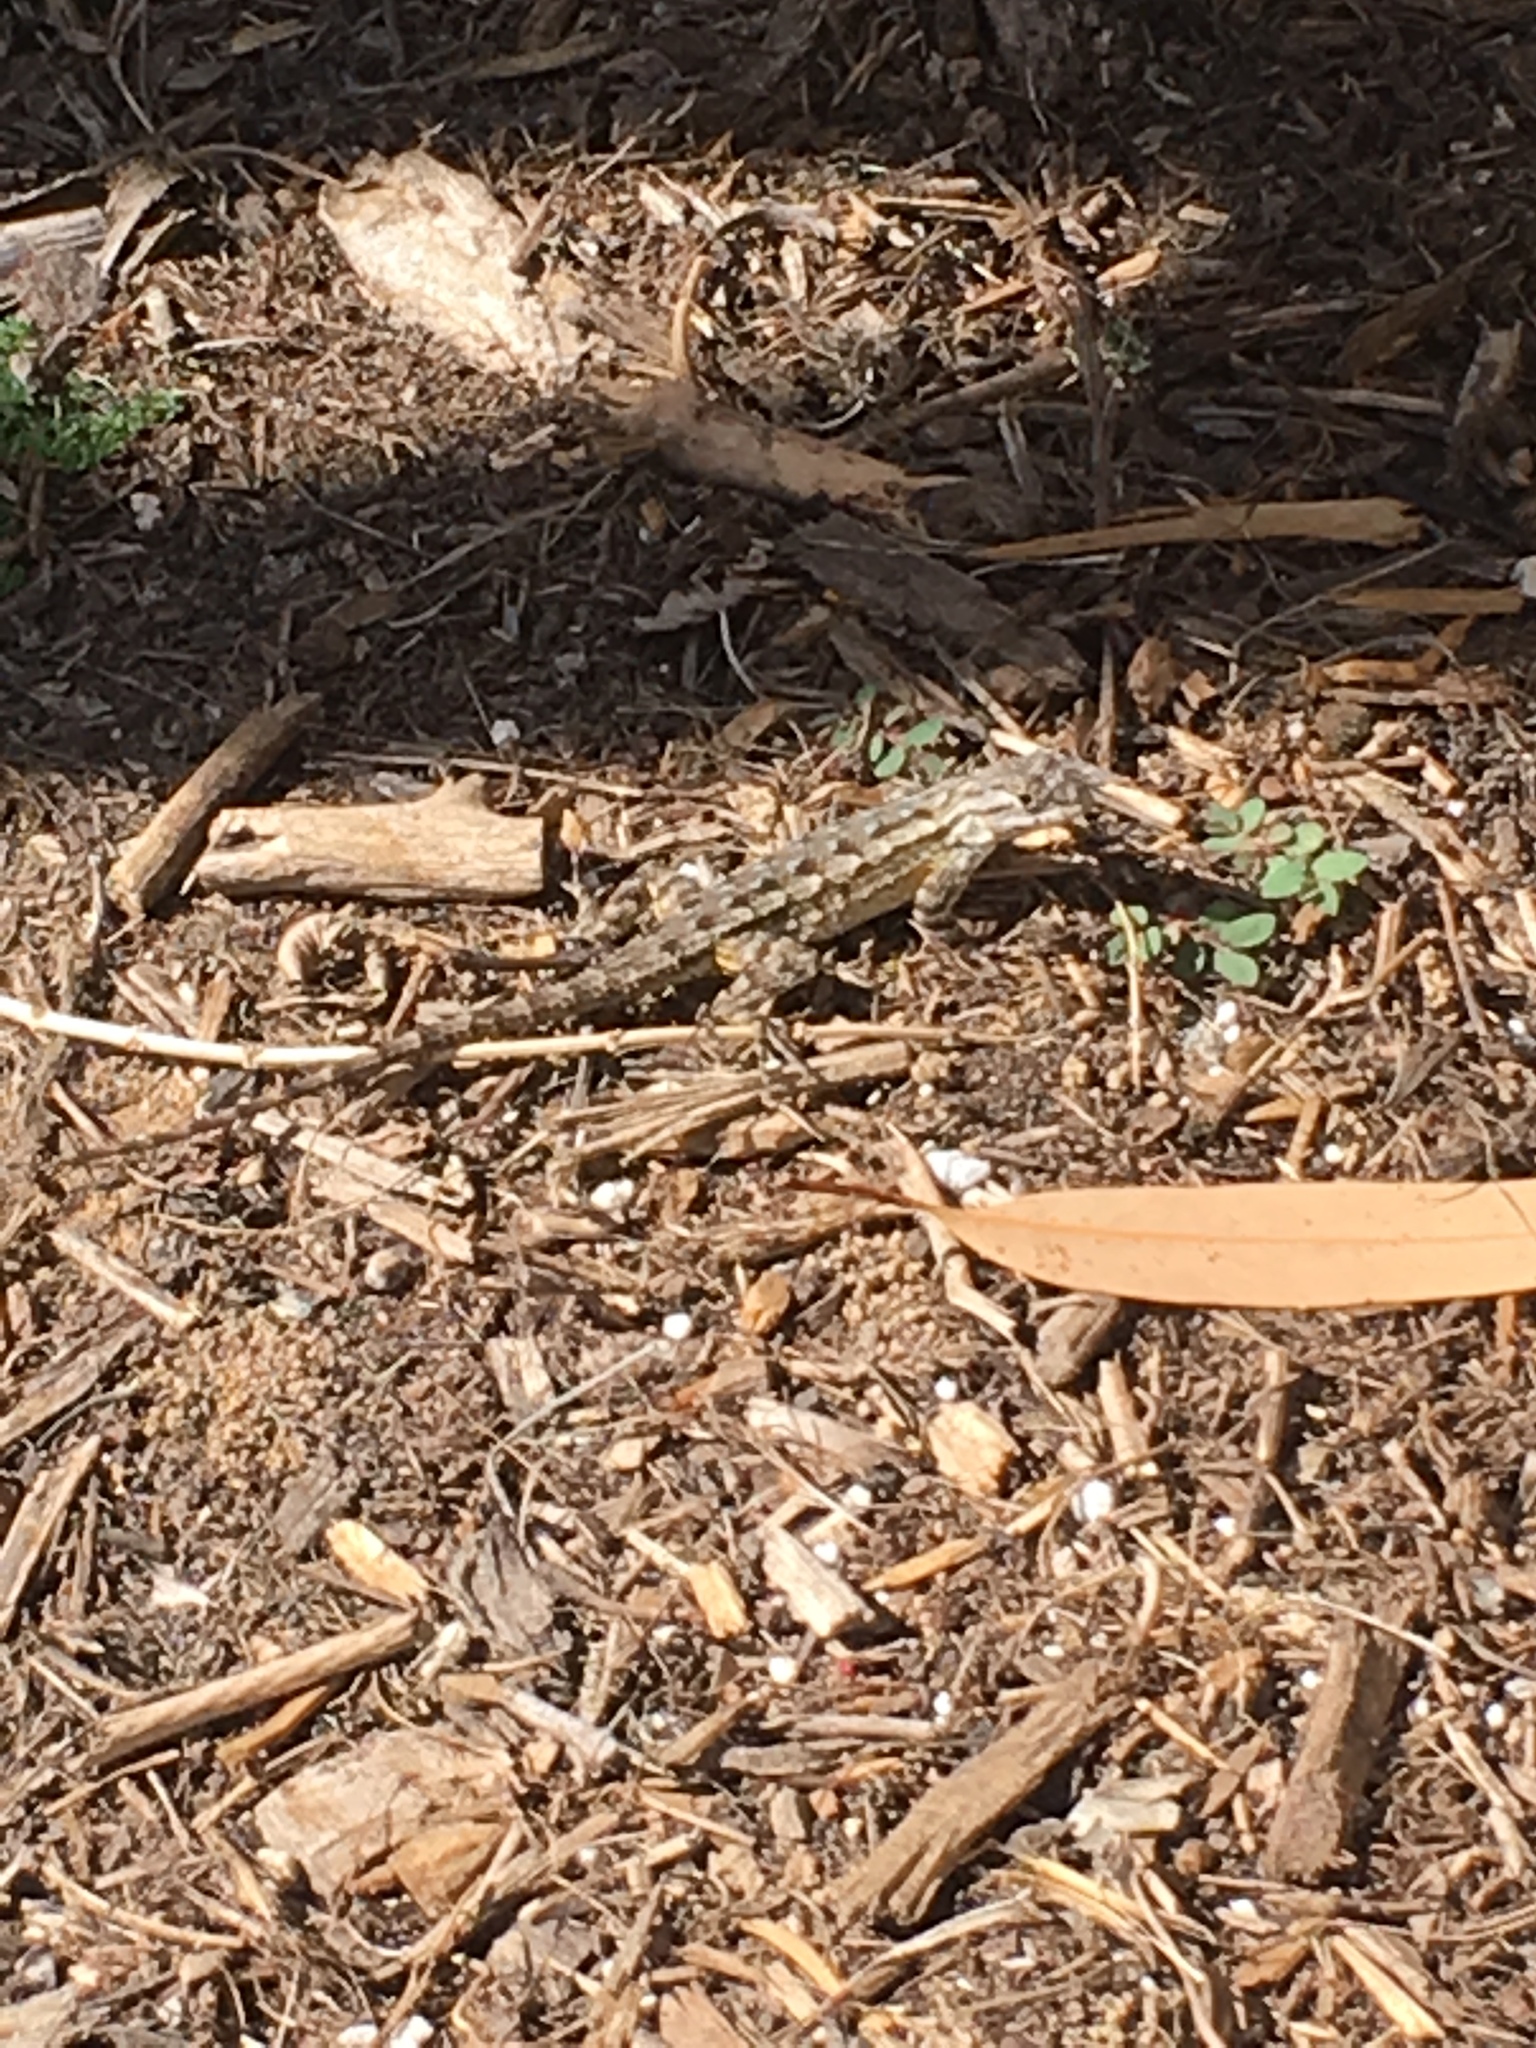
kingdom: Animalia
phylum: Chordata
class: Squamata
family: Phrynosomatidae
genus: Sceloporus
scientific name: Sceloporus occidentalis
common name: Western fence lizard
